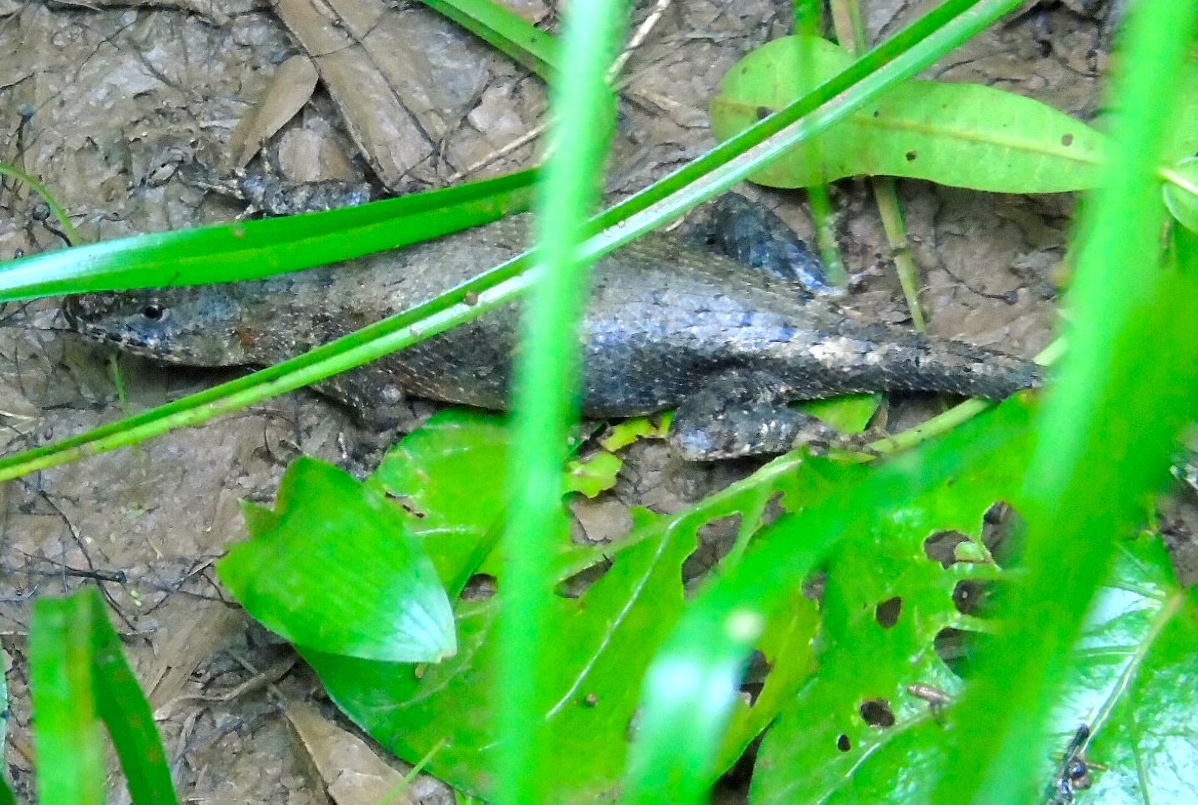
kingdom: Animalia
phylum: Chordata
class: Squamata
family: Phrynosomatidae
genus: Sceloporus
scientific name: Sceloporus nelsoni
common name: Nelson's spiny lizard
